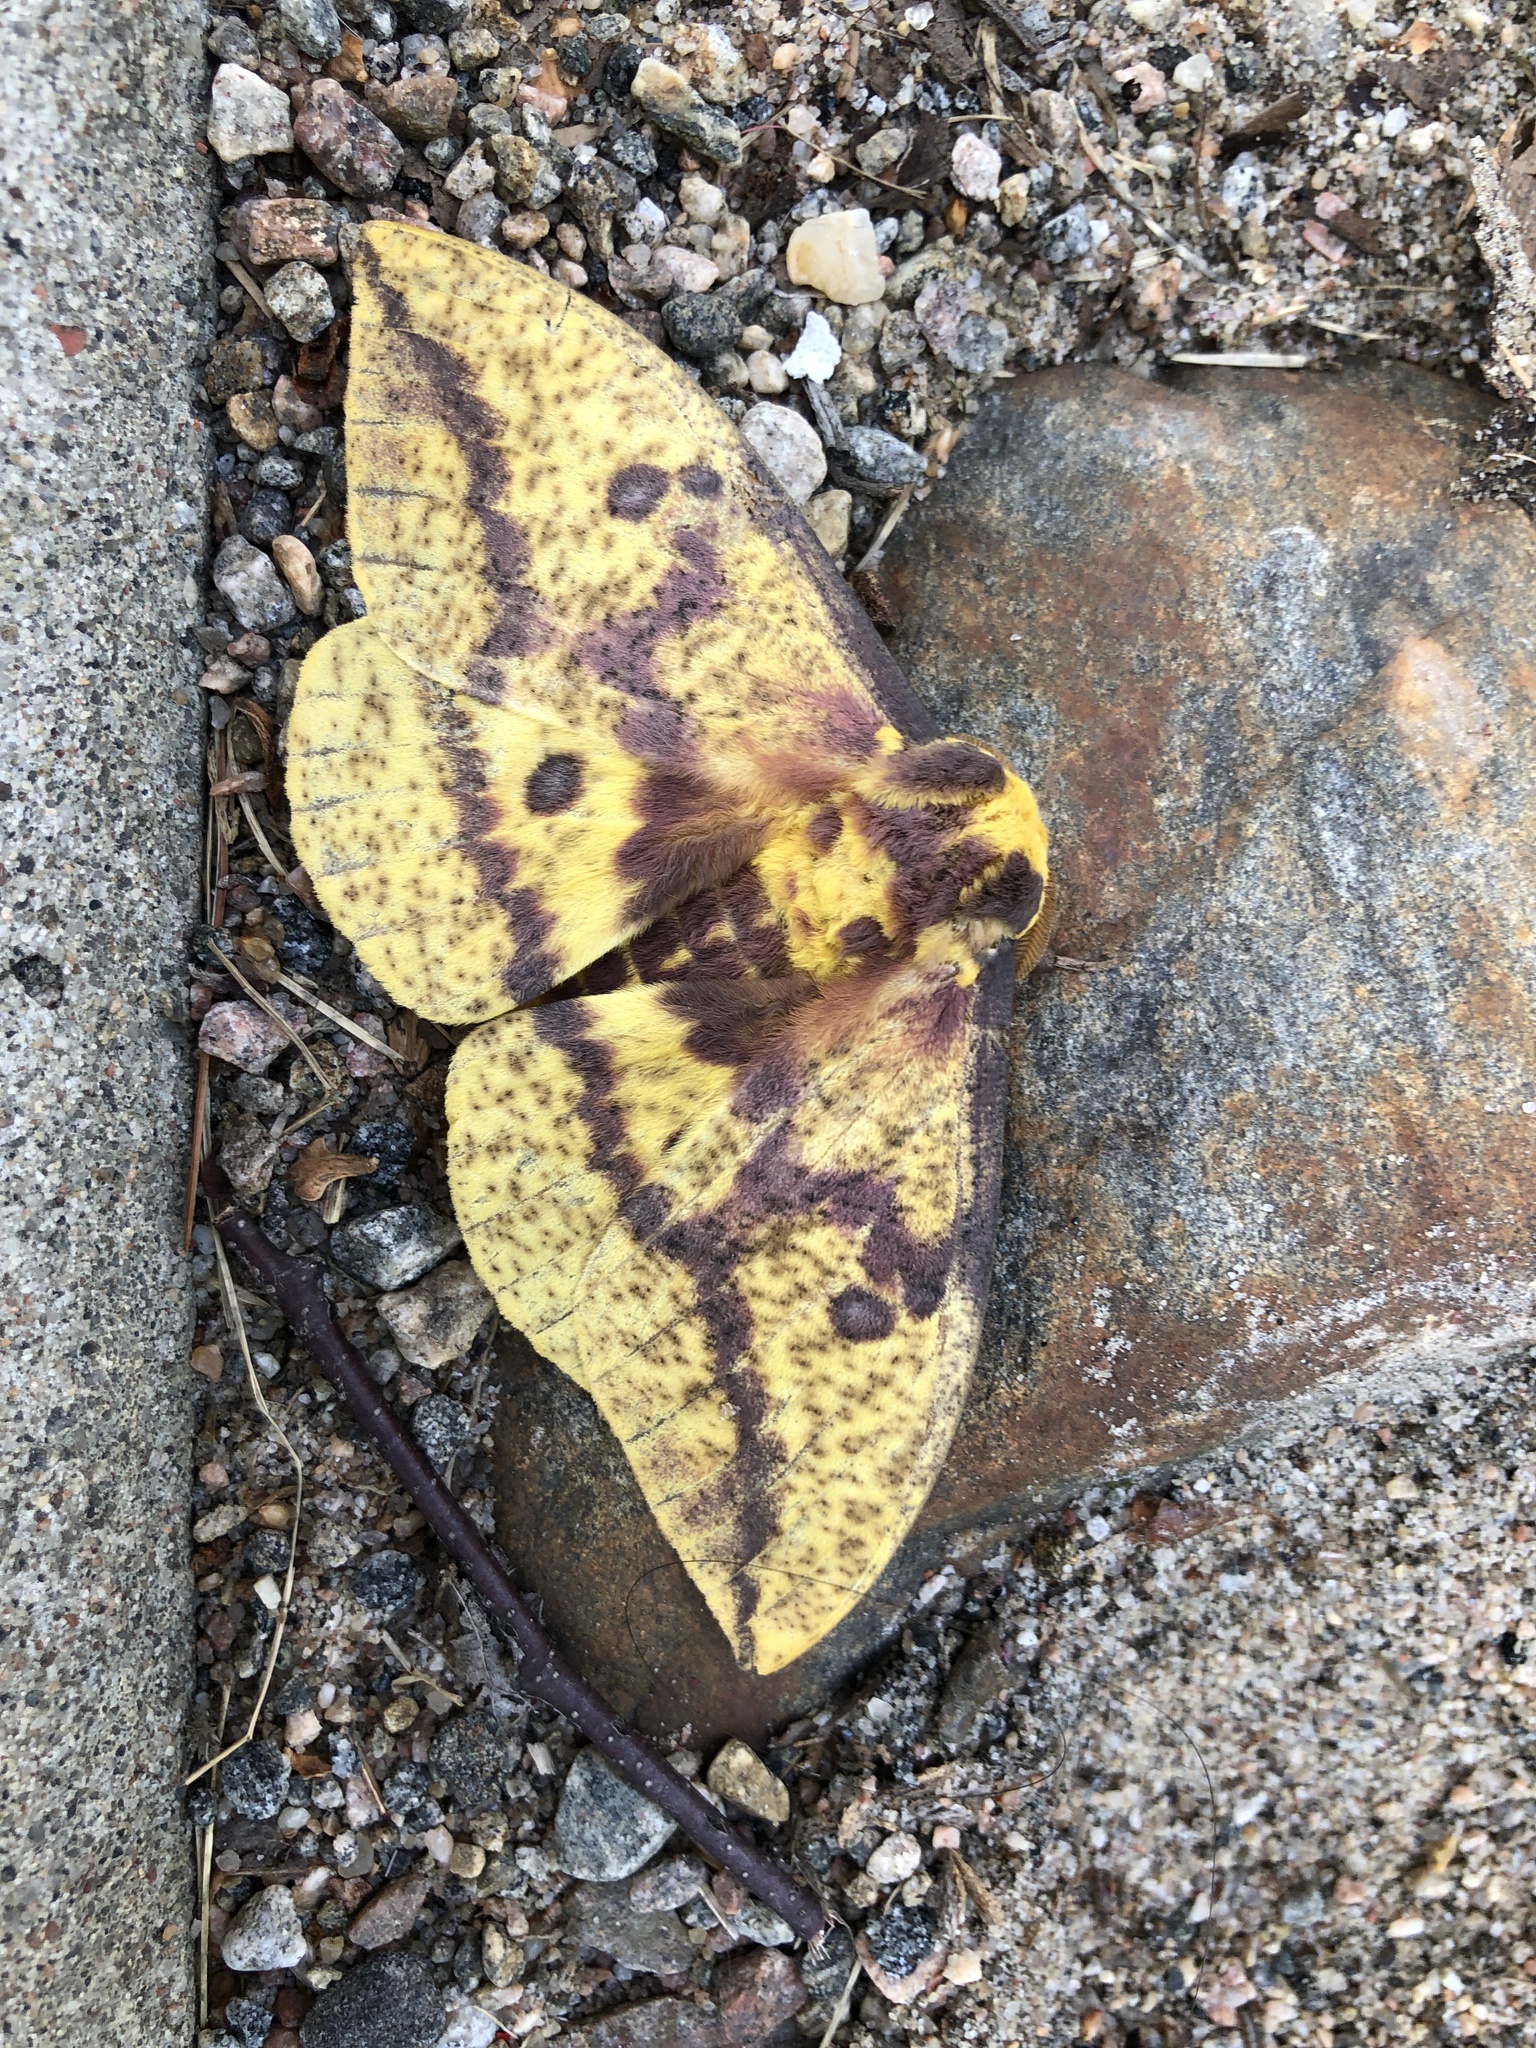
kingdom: Animalia
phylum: Arthropoda
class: Insecta
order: Lepidoptera
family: Saturniidae
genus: Eacles
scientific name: Eacles
